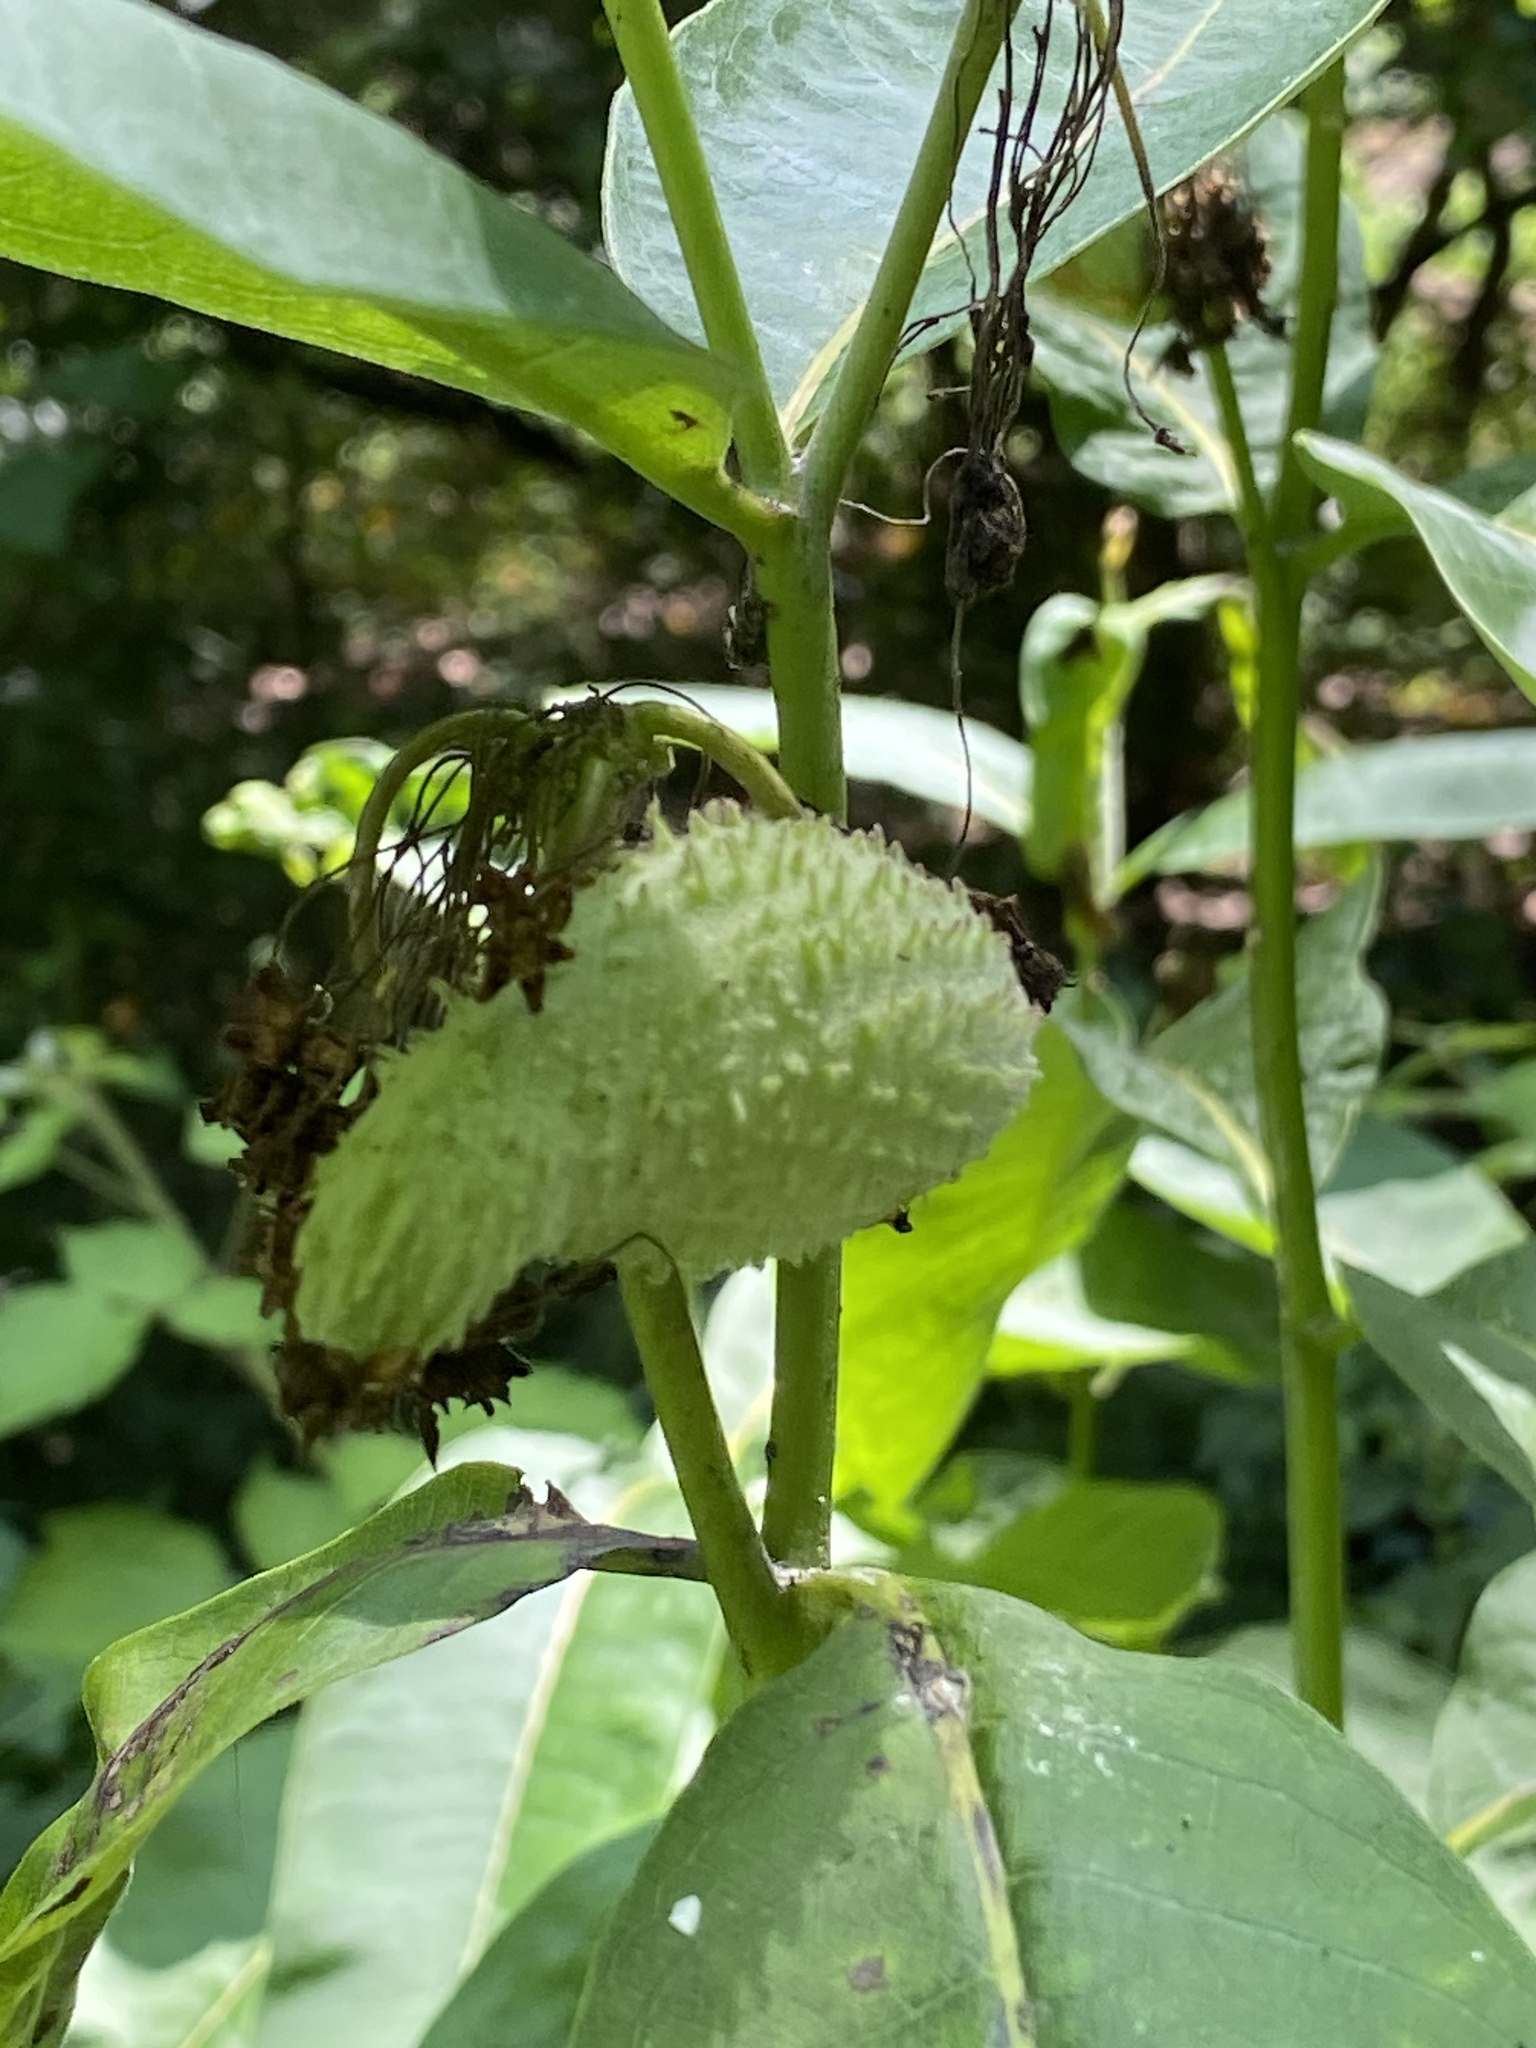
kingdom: Plantae
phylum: Tracheophyta
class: Magnoliopsida
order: Gentianales
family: Apocynaceae
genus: Asclepias
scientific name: Asclepias syriaca
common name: Common milkweed
